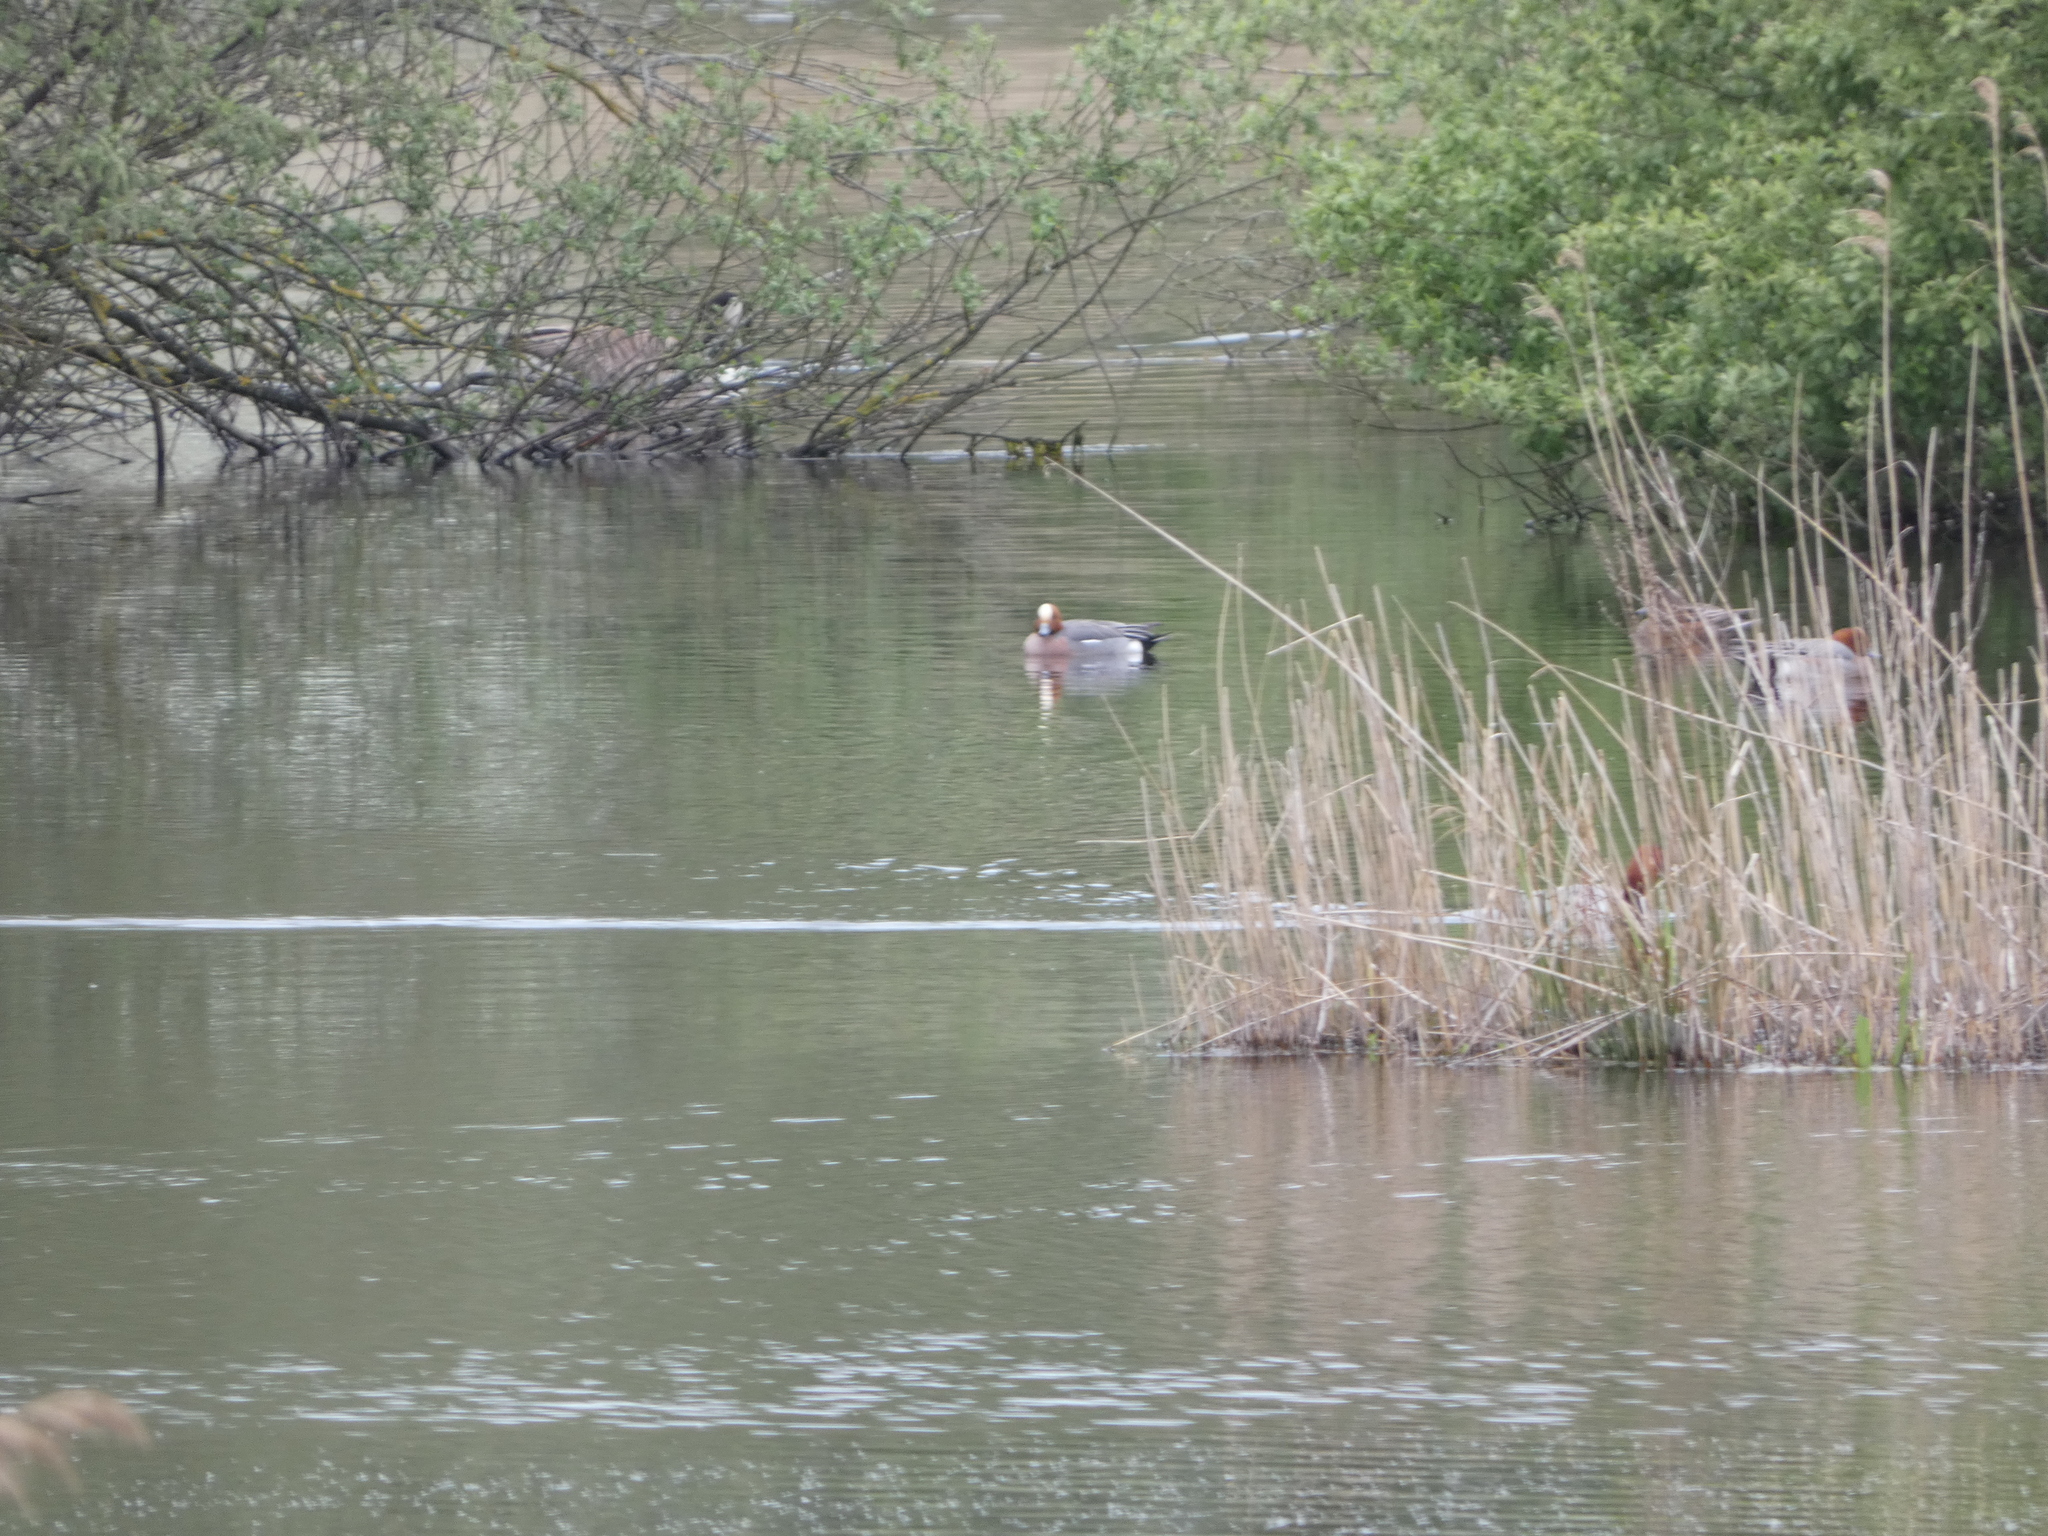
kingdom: Animalia
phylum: Chordata
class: Aves
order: Anseriformes
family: Anatidae
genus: Mareca
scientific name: Mareca penelope
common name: Eurasian wigeon
